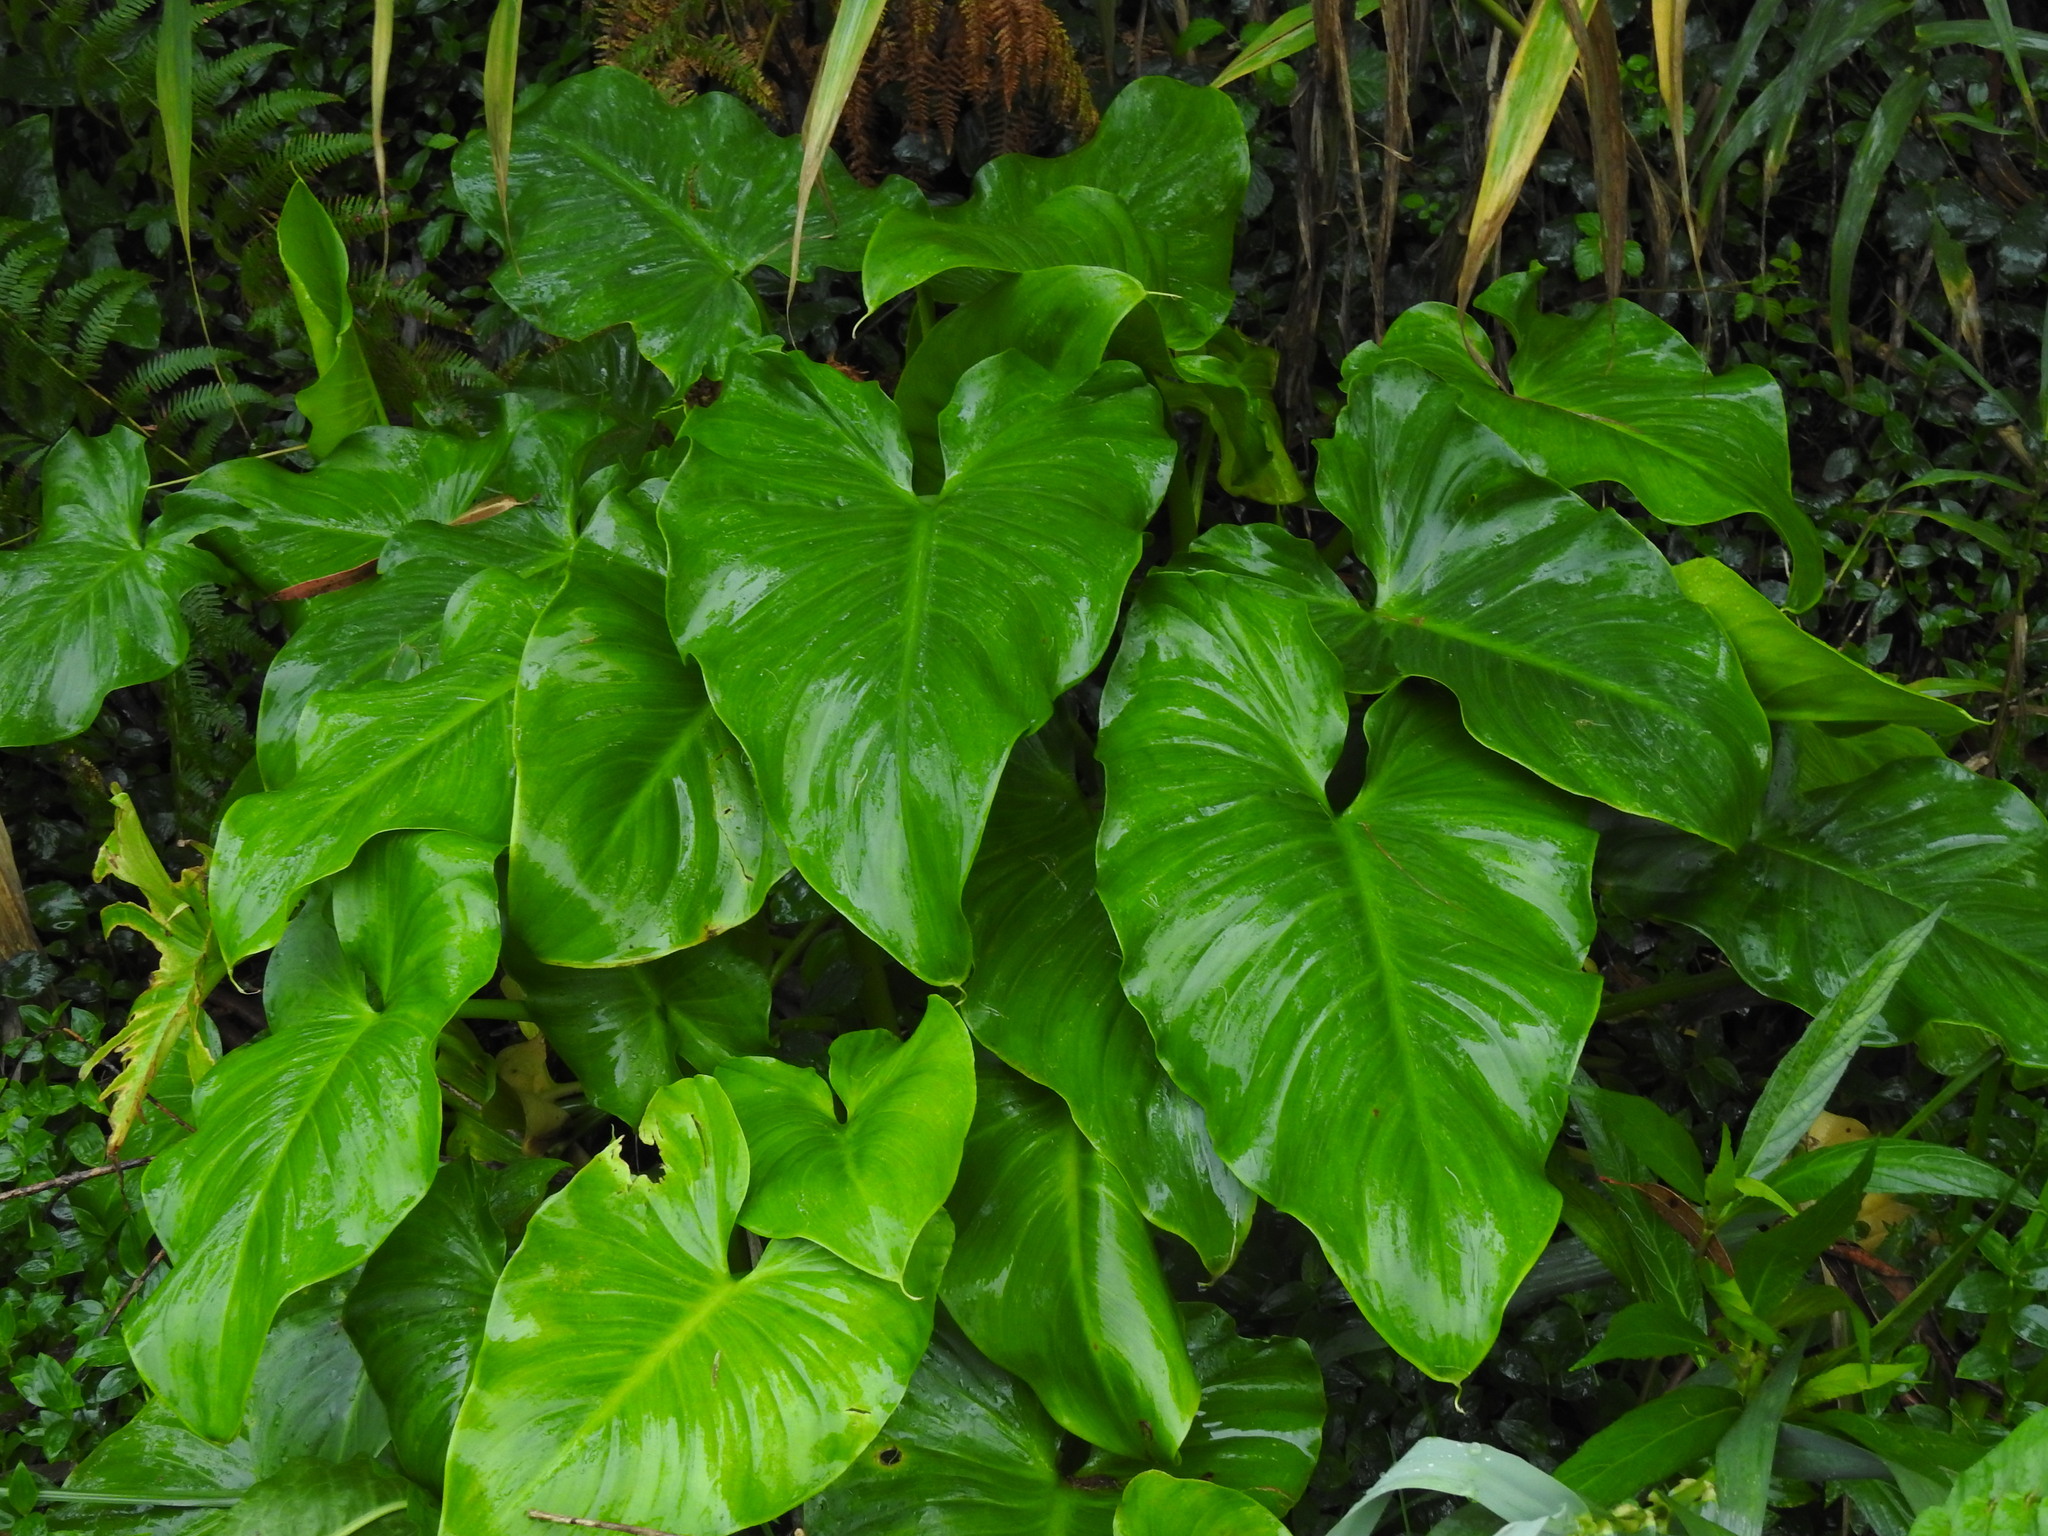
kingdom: Plantae
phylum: Tracheophyta
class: Liliopsida
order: Alismatales
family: Araceae
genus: Zantedeschia
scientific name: Zantedeschia aethiopica
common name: Altar-lily
